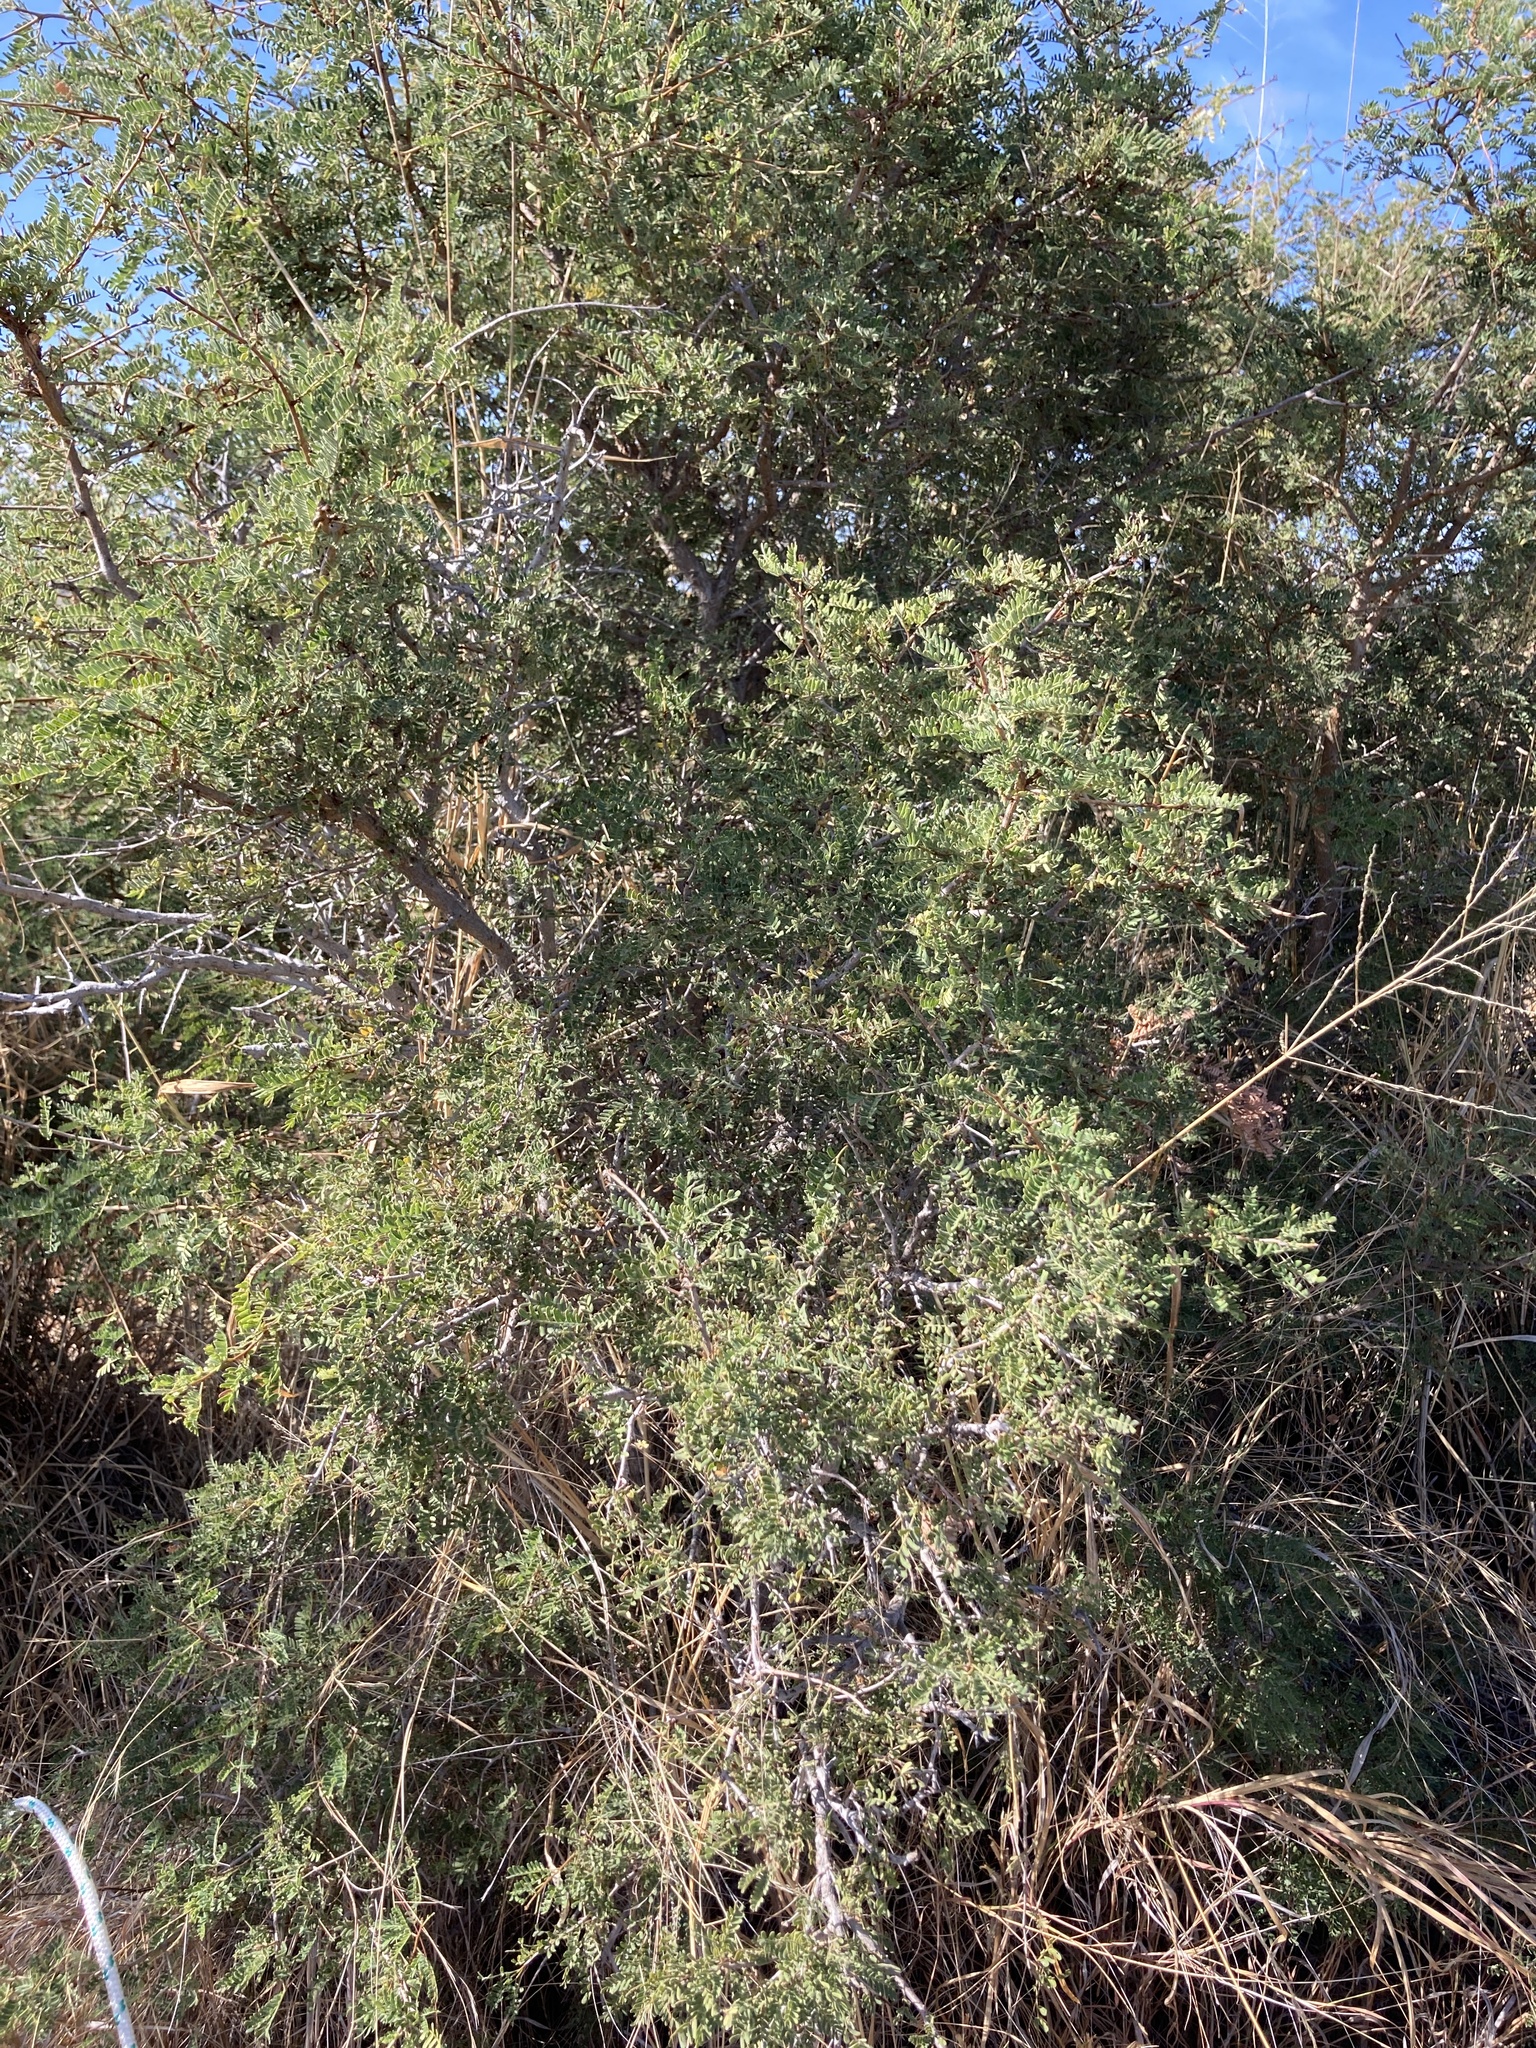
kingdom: Plantae
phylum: Tracheophyta
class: Magnoliopsida
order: Fabales
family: Fabaceae
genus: Archidendropsis
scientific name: Archidendropsis basaltica
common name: Red lancewood
